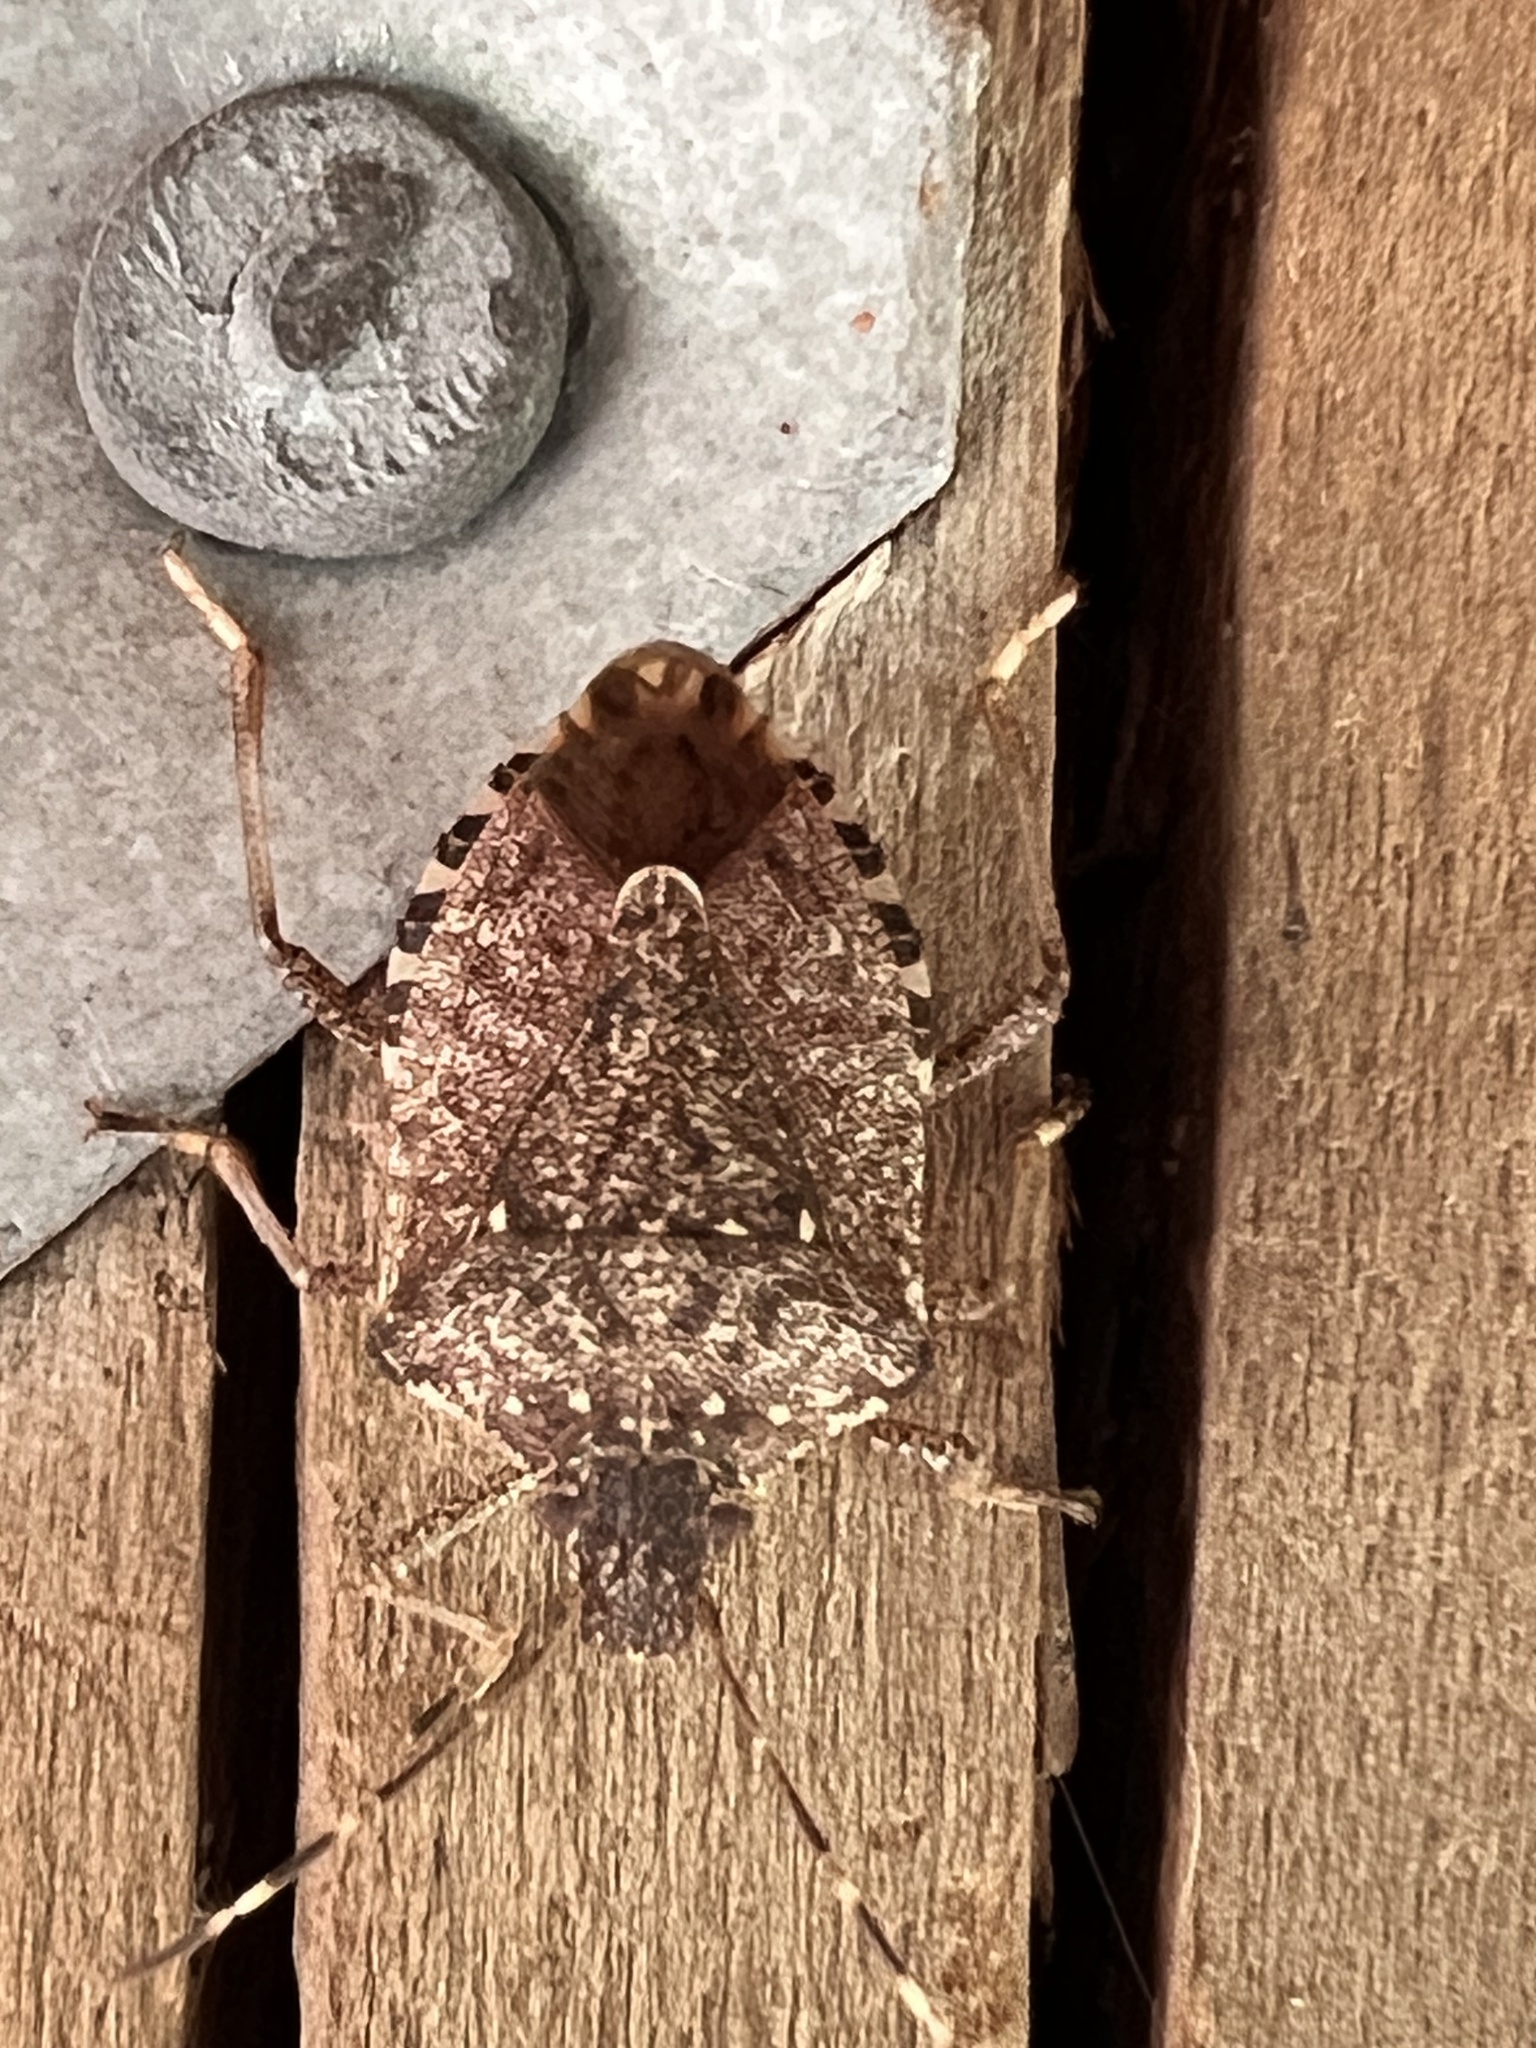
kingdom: Animalia
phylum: Arthropoda
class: Insecta
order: Hemiptera
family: Pentatomidae
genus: Halyomorpha
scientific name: Halyomorpha halys
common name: Brown marmorated stink bug
